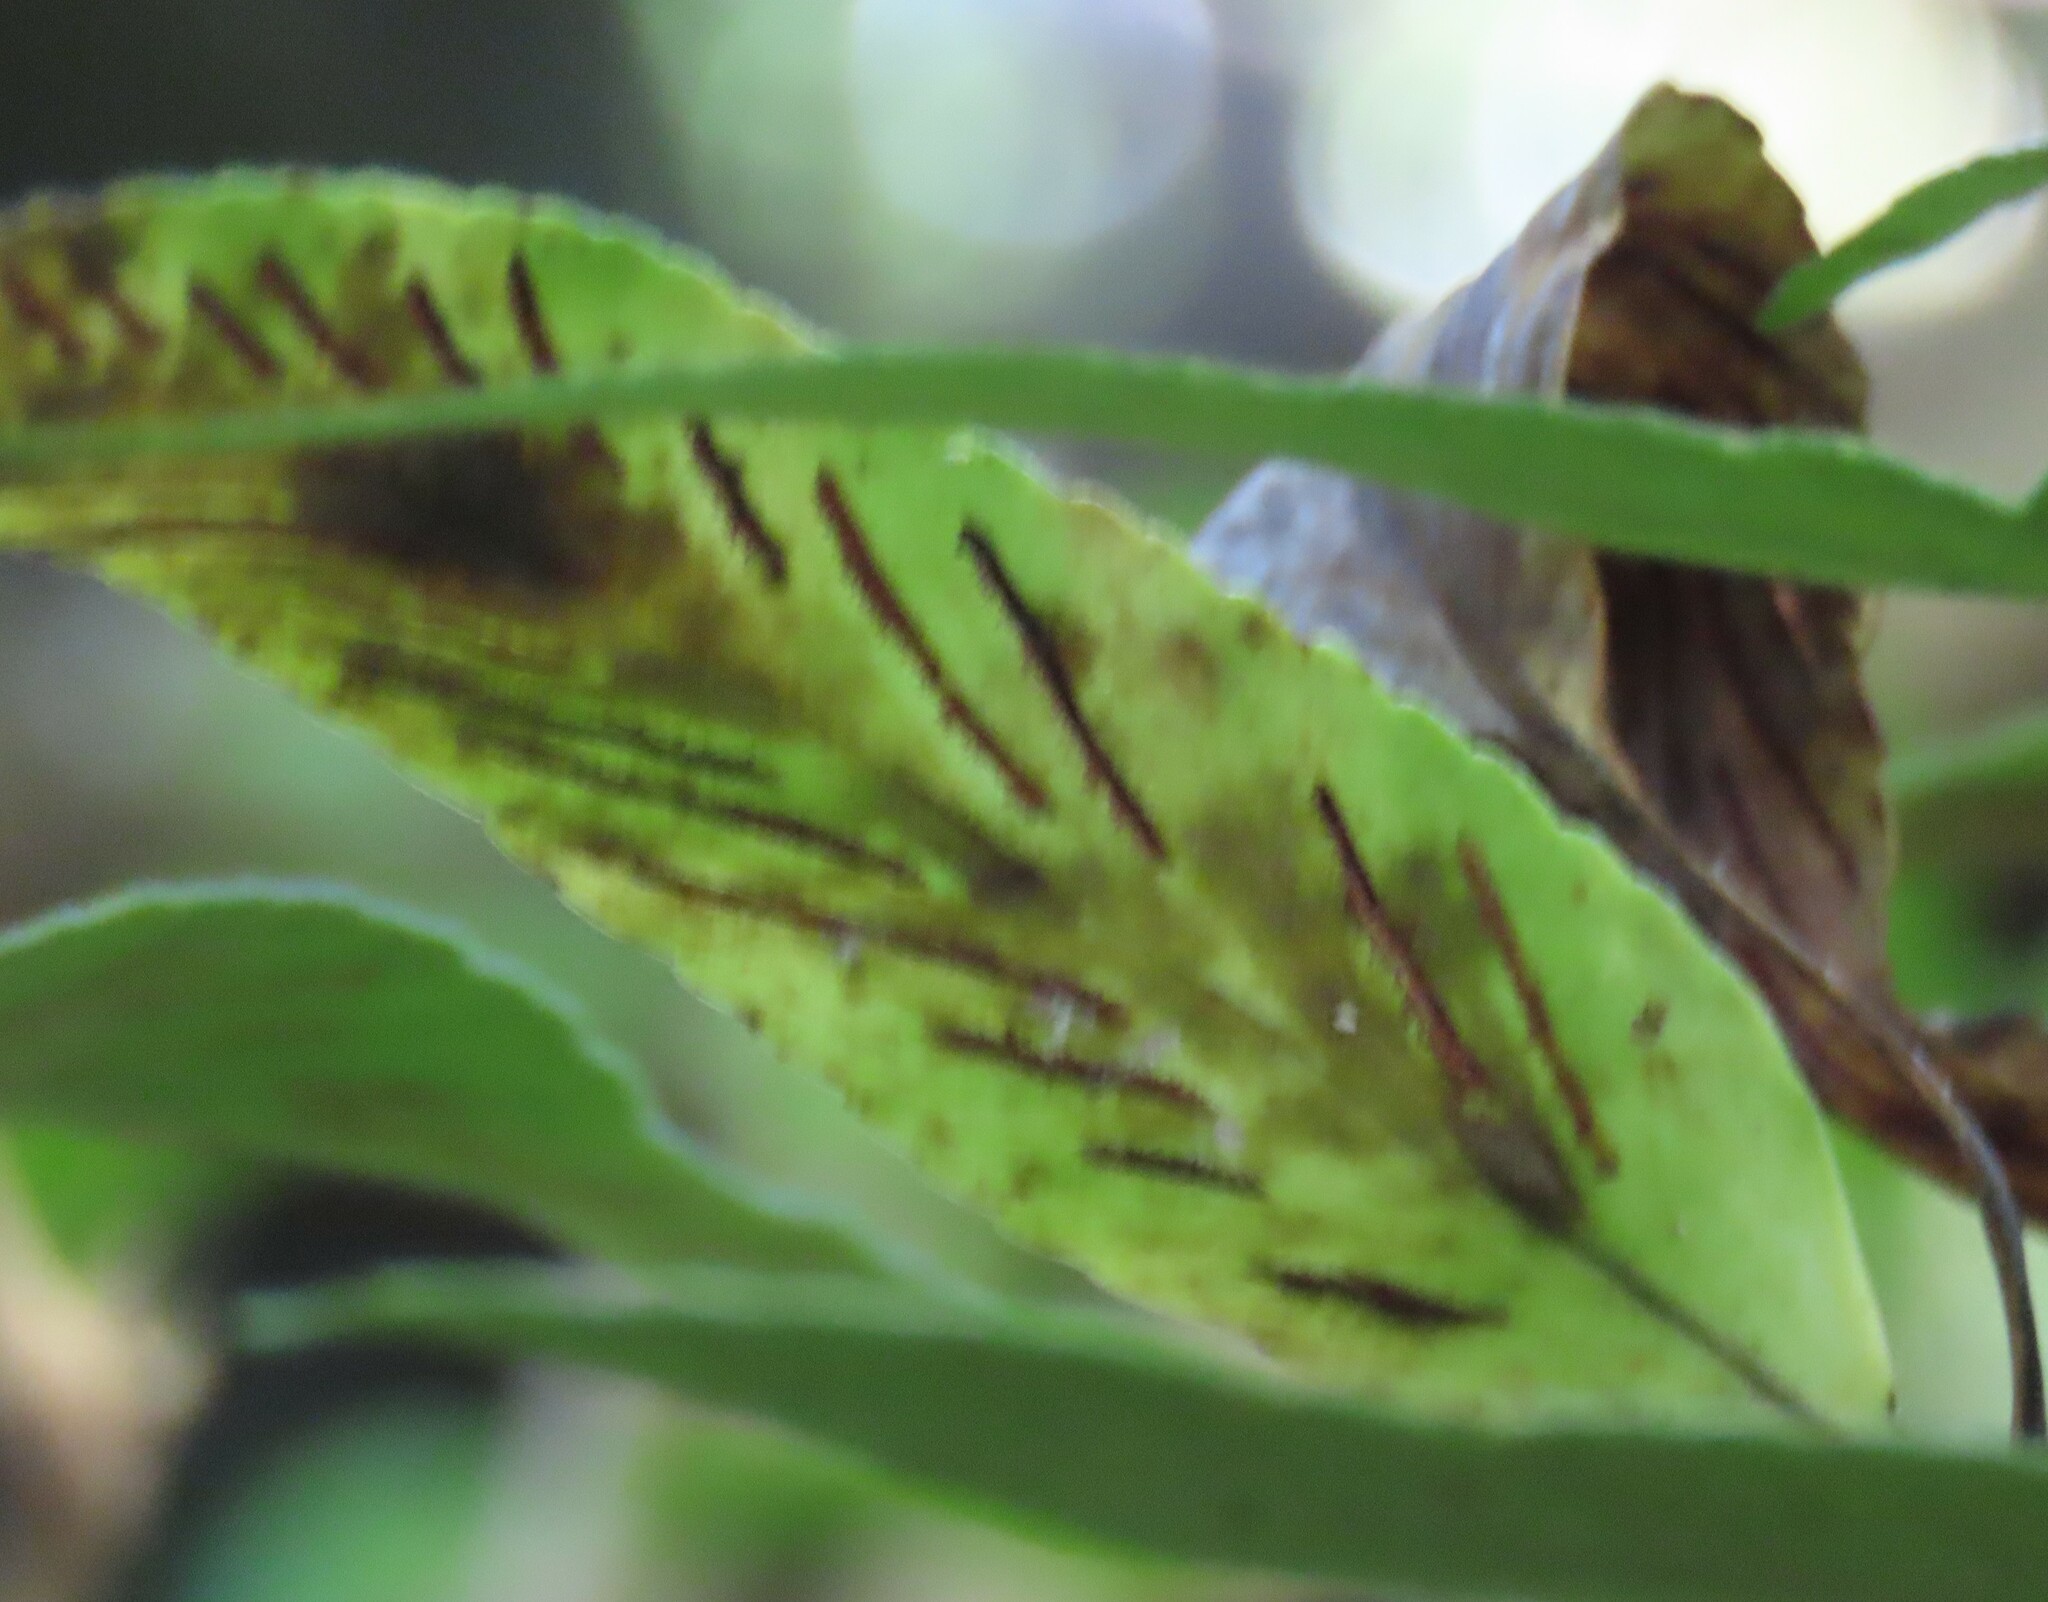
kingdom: Plantae
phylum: Tracheophyta
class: Polypodiopsida
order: Polypodiales
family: Aspleniaceae
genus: Asplenium
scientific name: Asplenium oblongifolium
